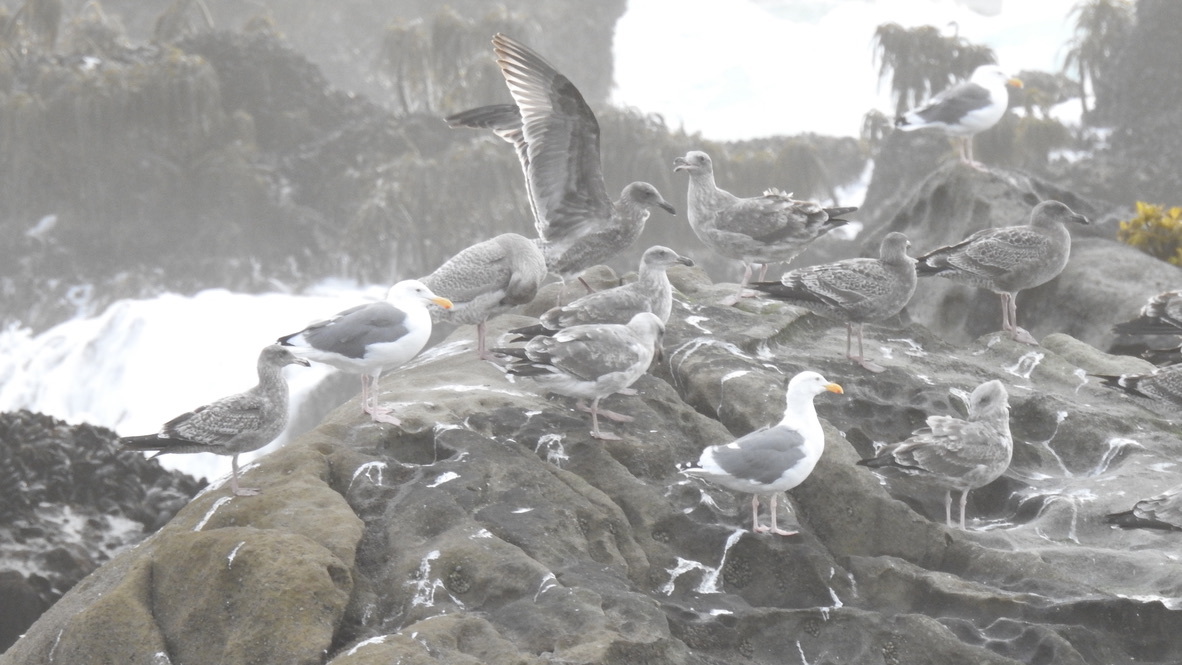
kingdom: Animalia
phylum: Chordata
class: Aves
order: Charadriiformes
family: Laridae
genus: Larus
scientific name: Larus occidentalis
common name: Western gull
